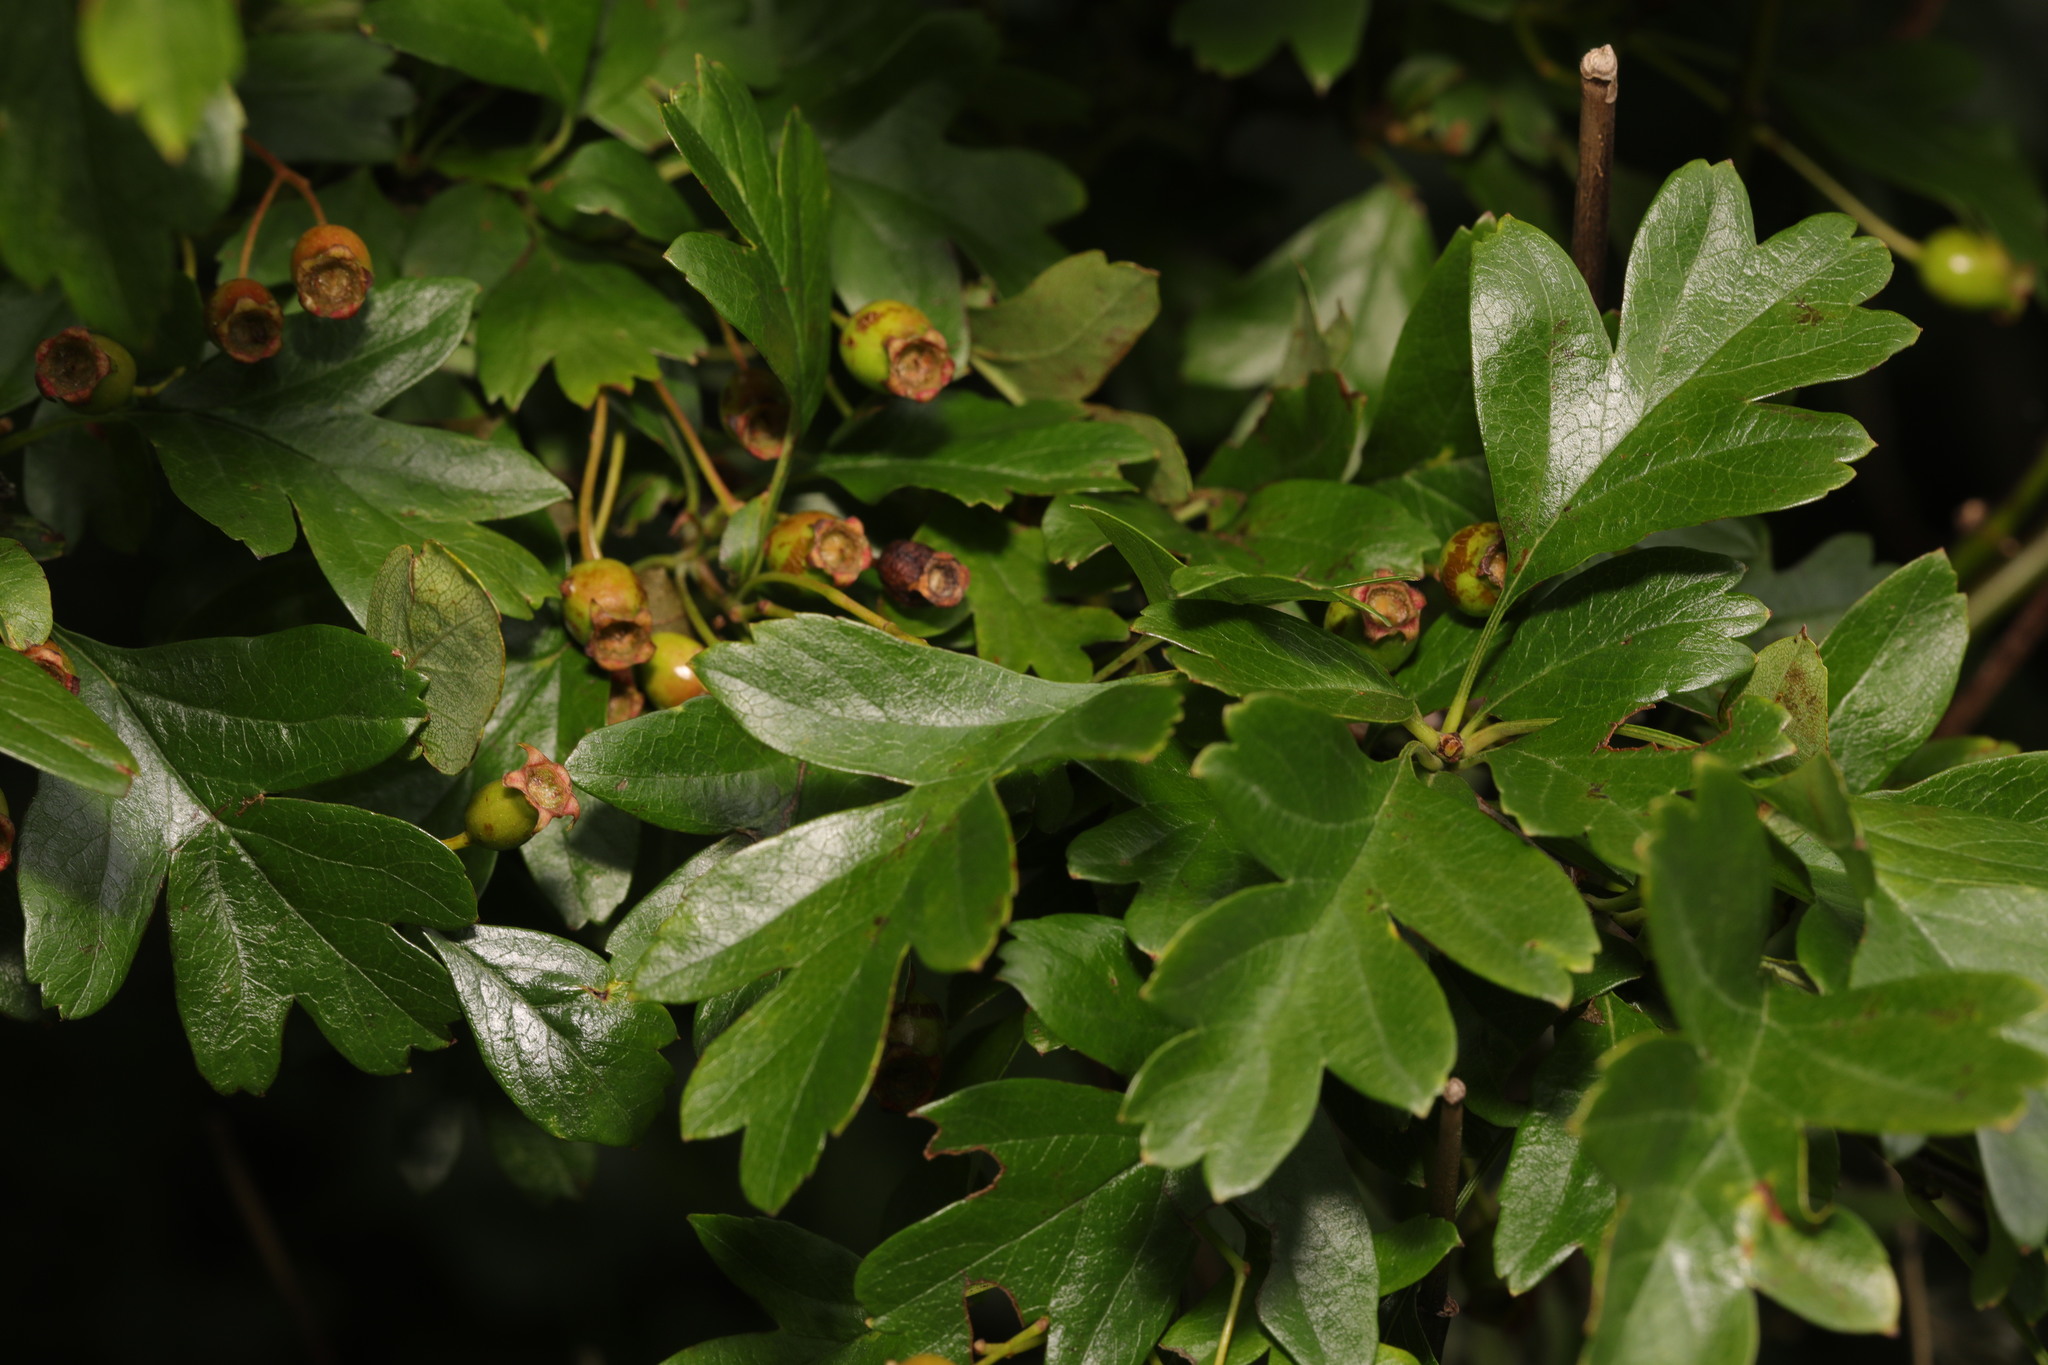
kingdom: Plantae
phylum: Tracheophyta
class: Magnoliopsida
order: Rosales
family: Rosaceae
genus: Crataegus
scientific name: Crataegus monogyna
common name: Hawthorn
